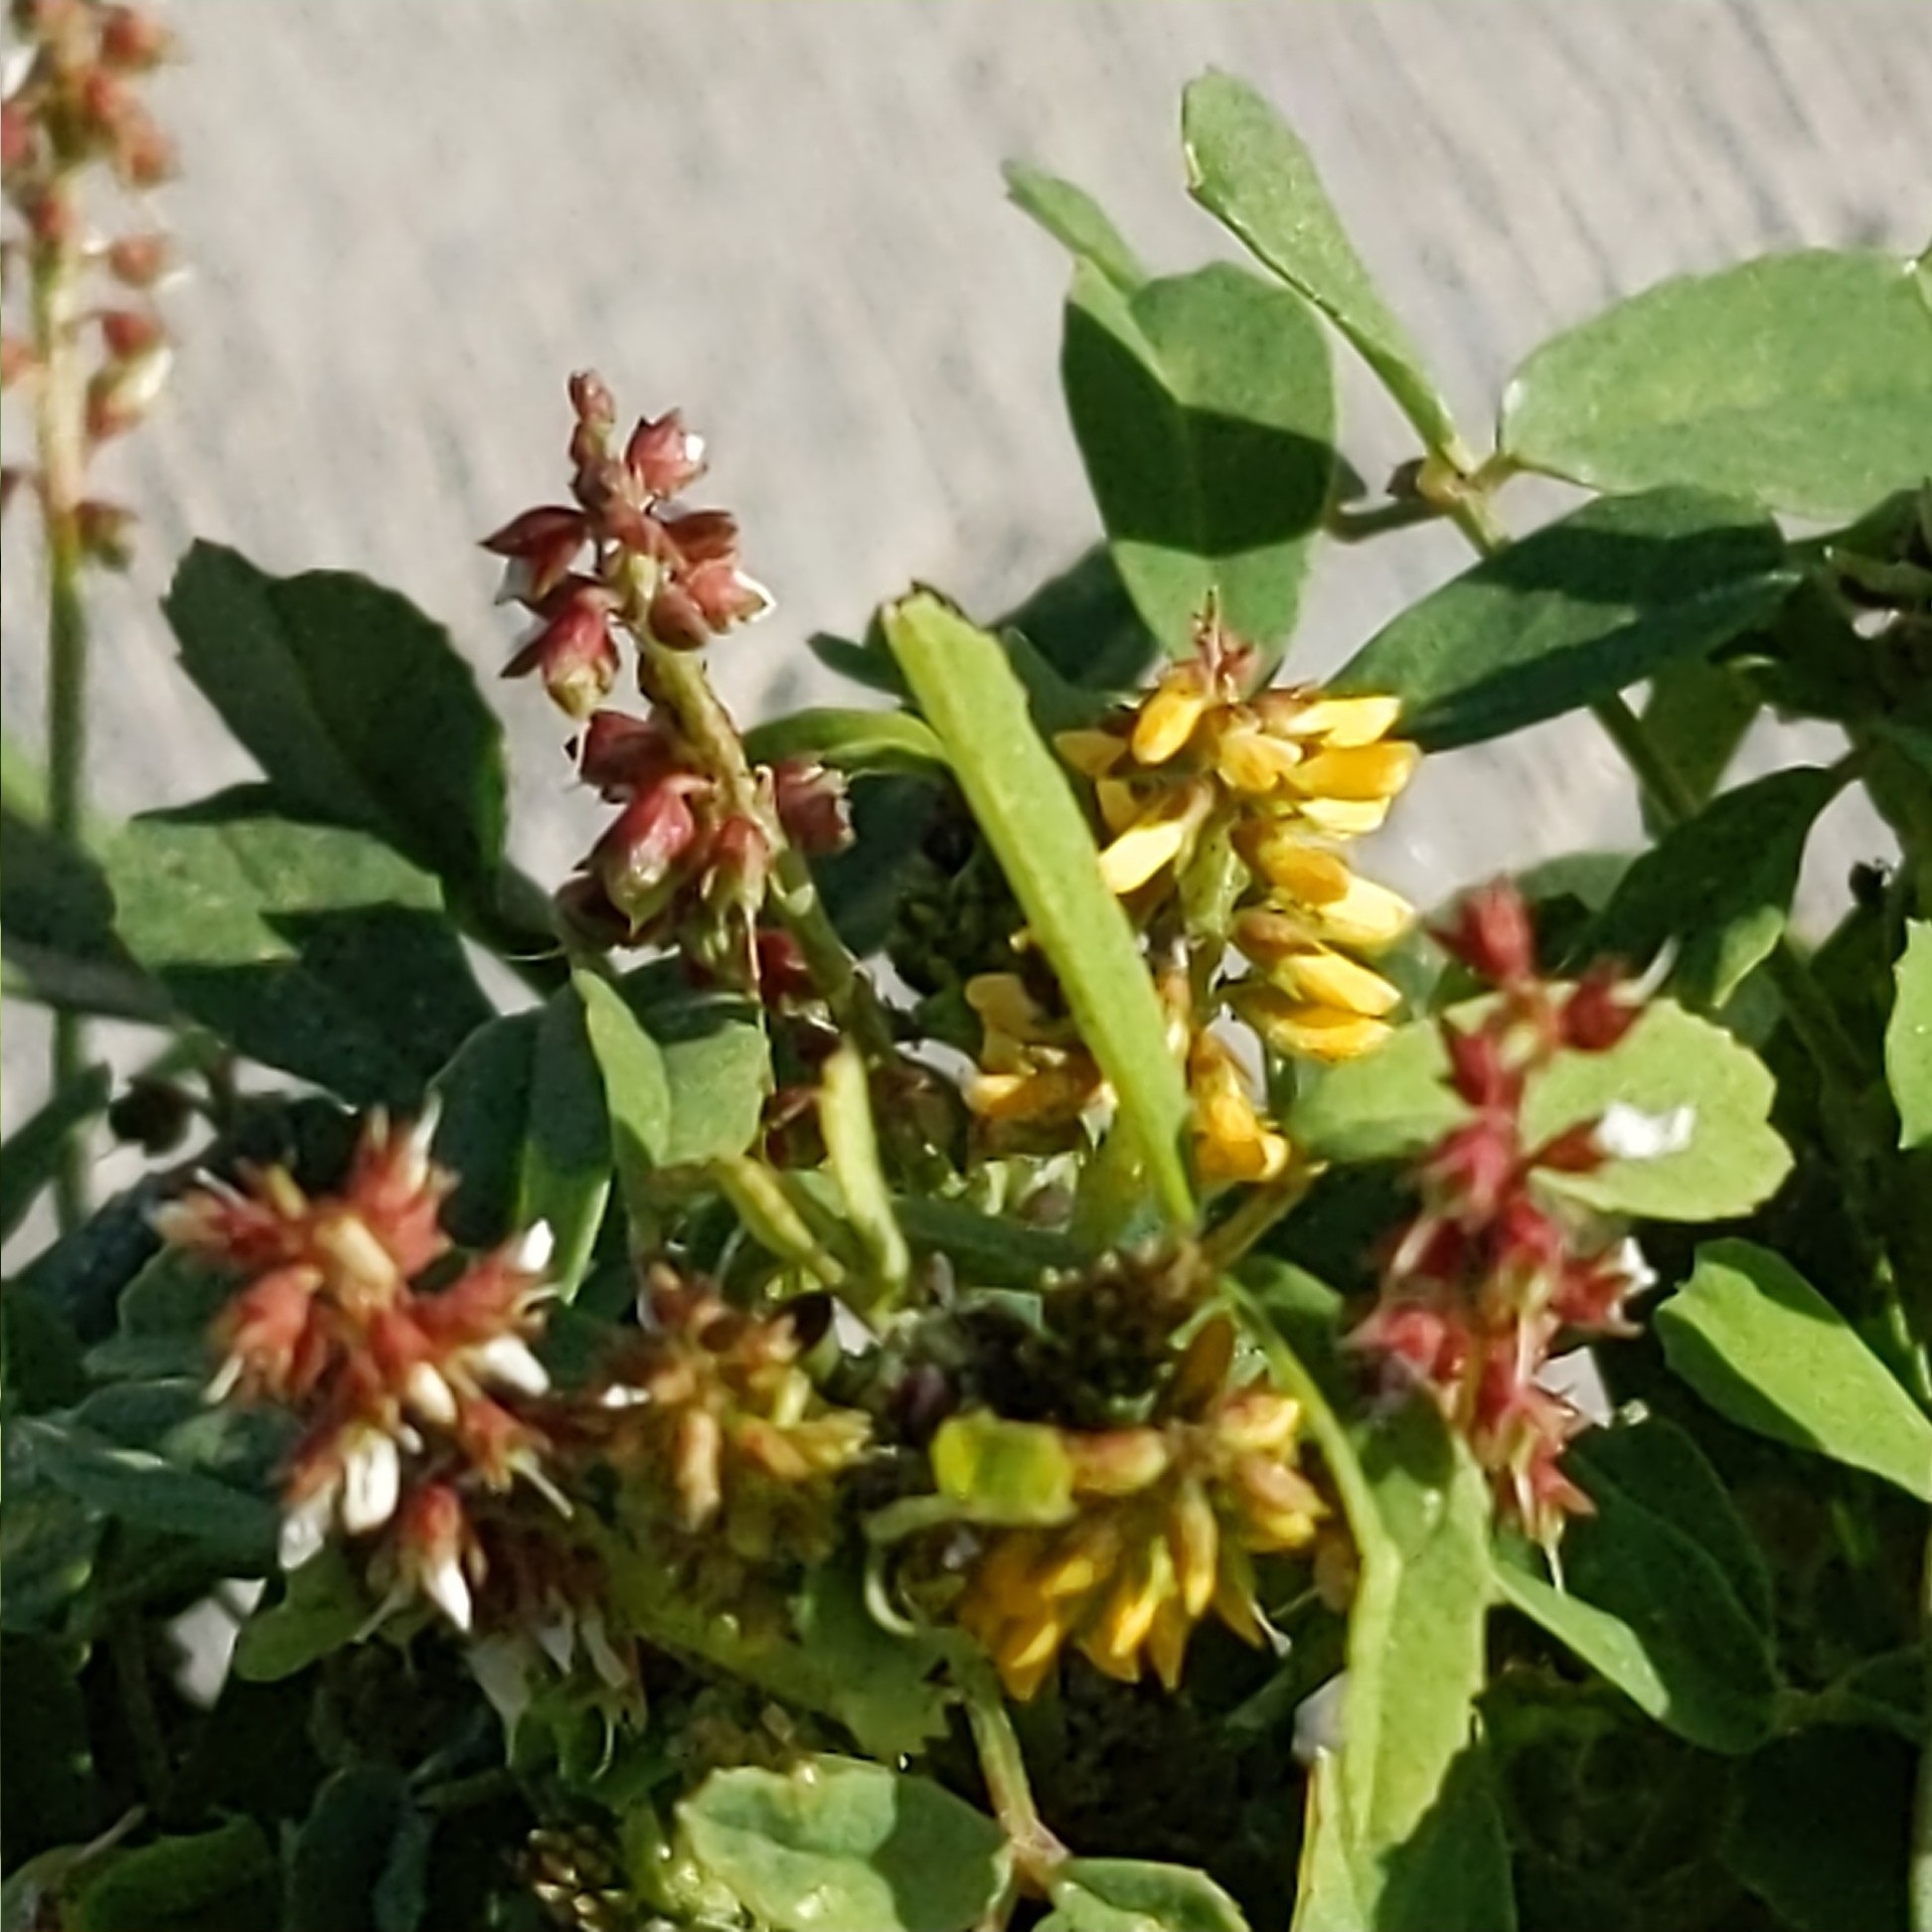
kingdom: Plantae
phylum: Tracheophyta
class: Magnoliopsida
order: Fabales
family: Fabaceae
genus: Melilotus
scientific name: Melilotus indicus
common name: Small melilot
